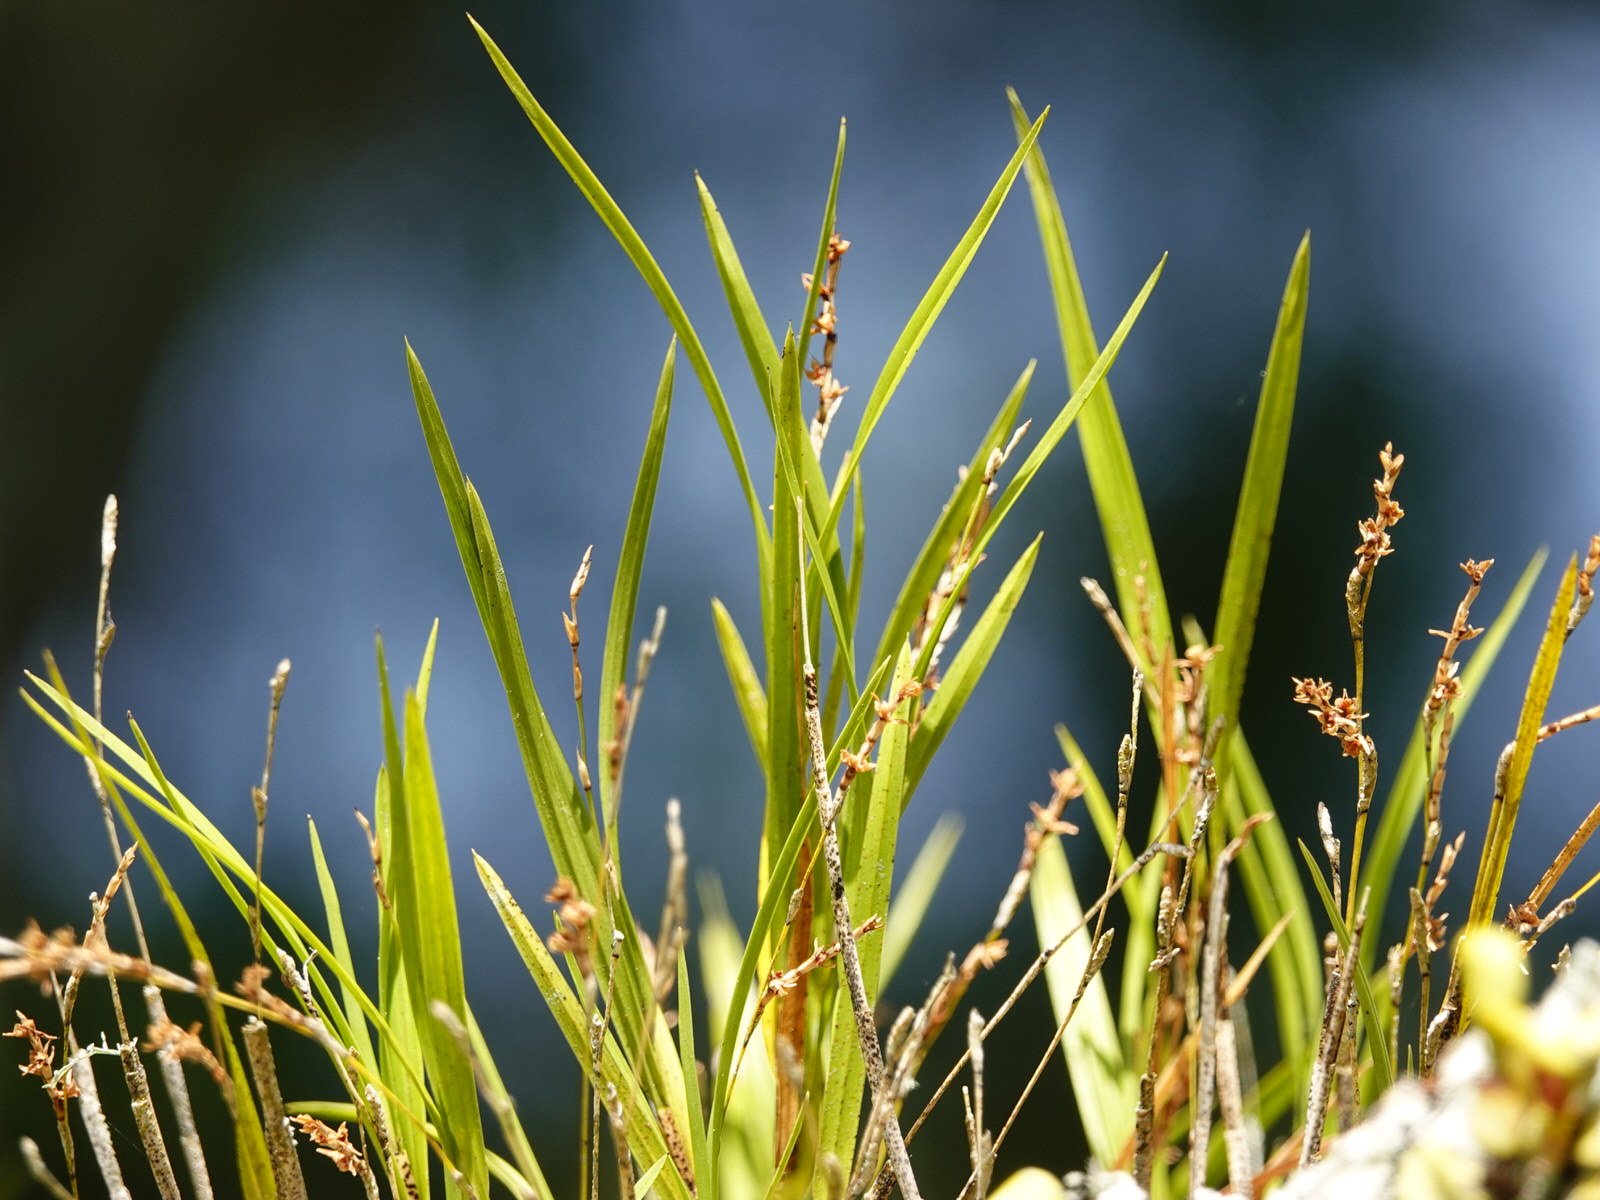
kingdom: Plantae
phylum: Tracheophyta
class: Liliopsida
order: Asparagales
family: Orchidaceae
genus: Earina
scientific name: Earina aestivalis
